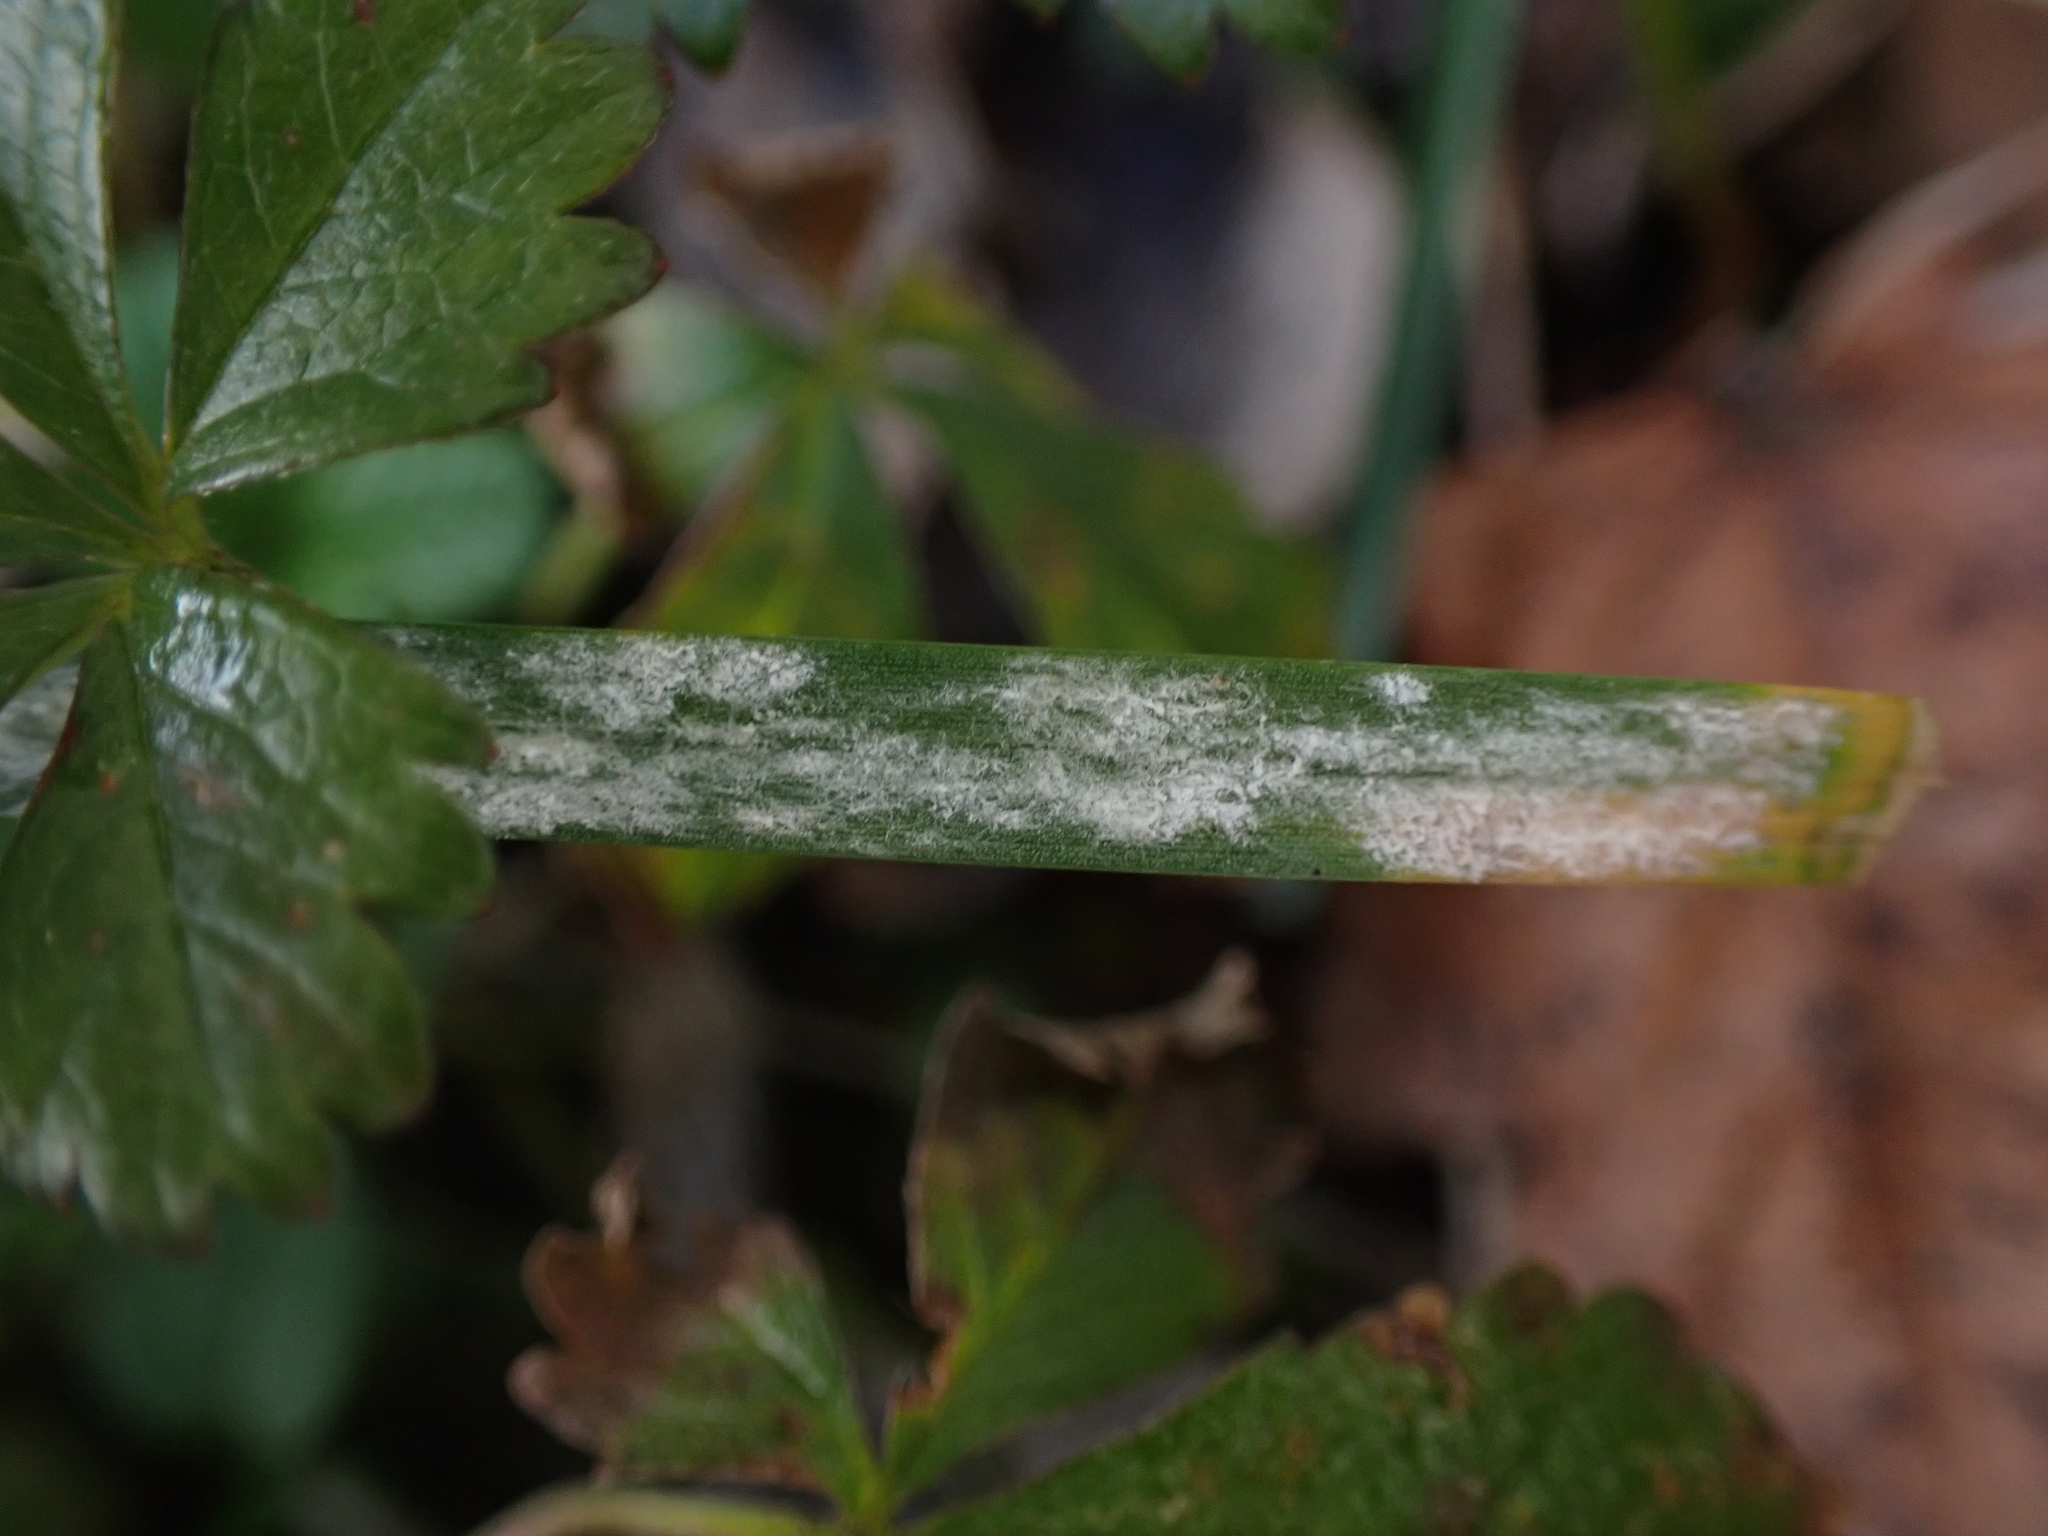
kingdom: Fungi
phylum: Ascomycota
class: Leotiomycetes
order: Helotiales
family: Erysiphaceae
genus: Blumeria
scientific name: Blumeria graminicola
